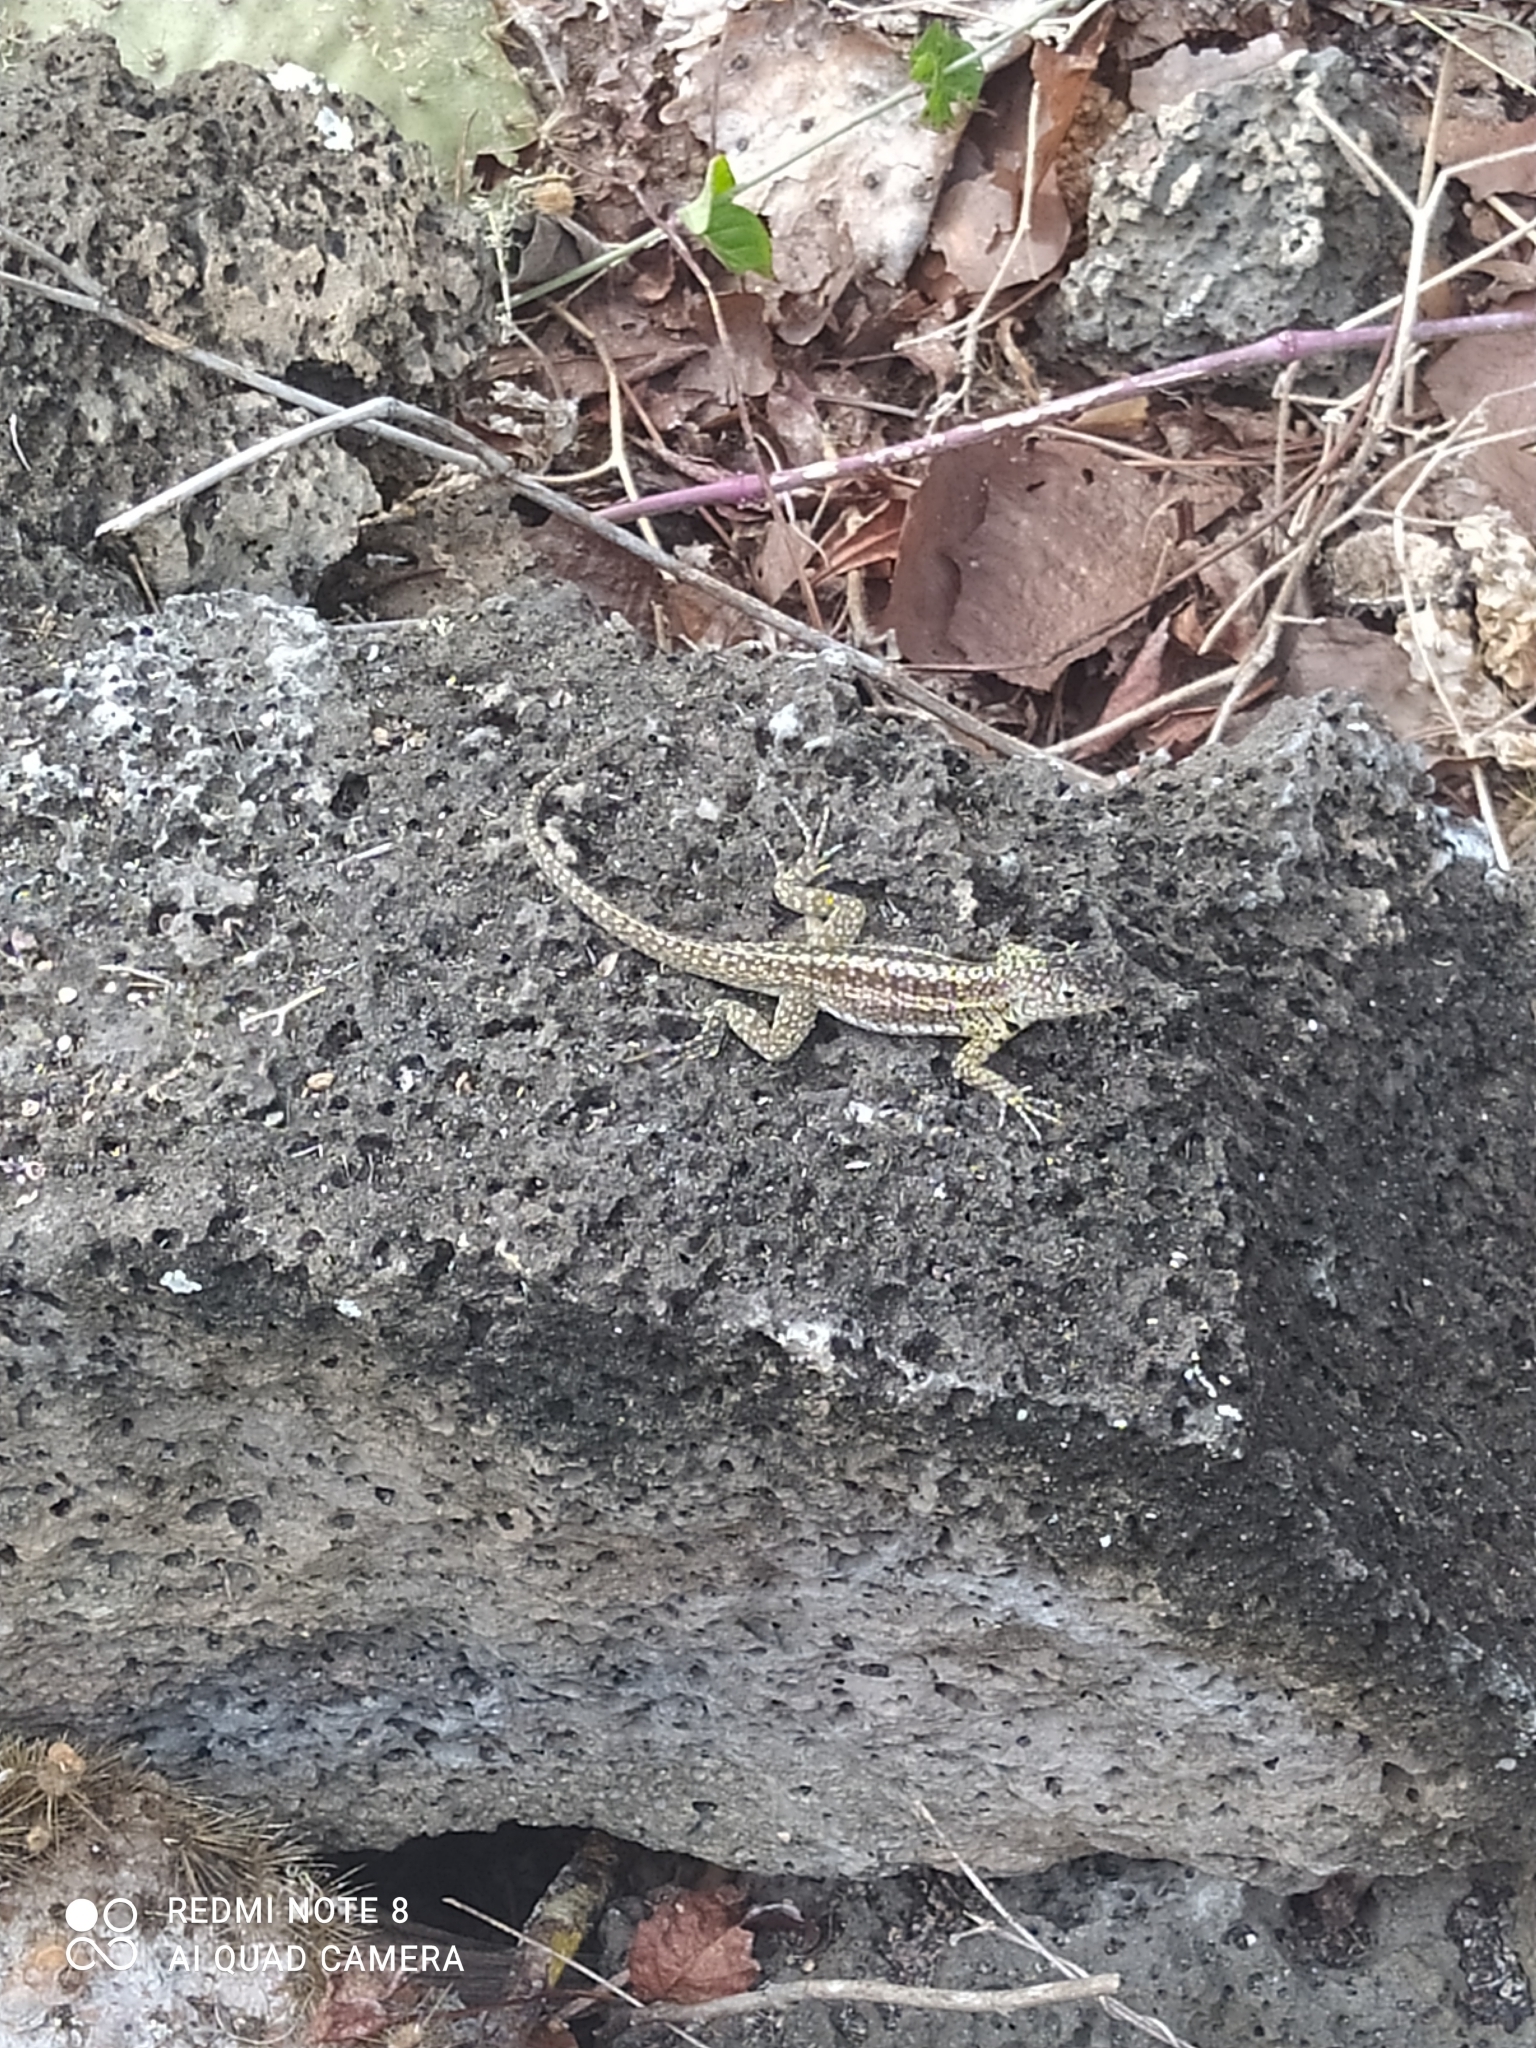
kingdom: Animalia
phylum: Chordata
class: Squamata
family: Tropiduridae
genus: Microlophus
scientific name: Microlophus indefatigabilis
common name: Galapagos lava lizard
